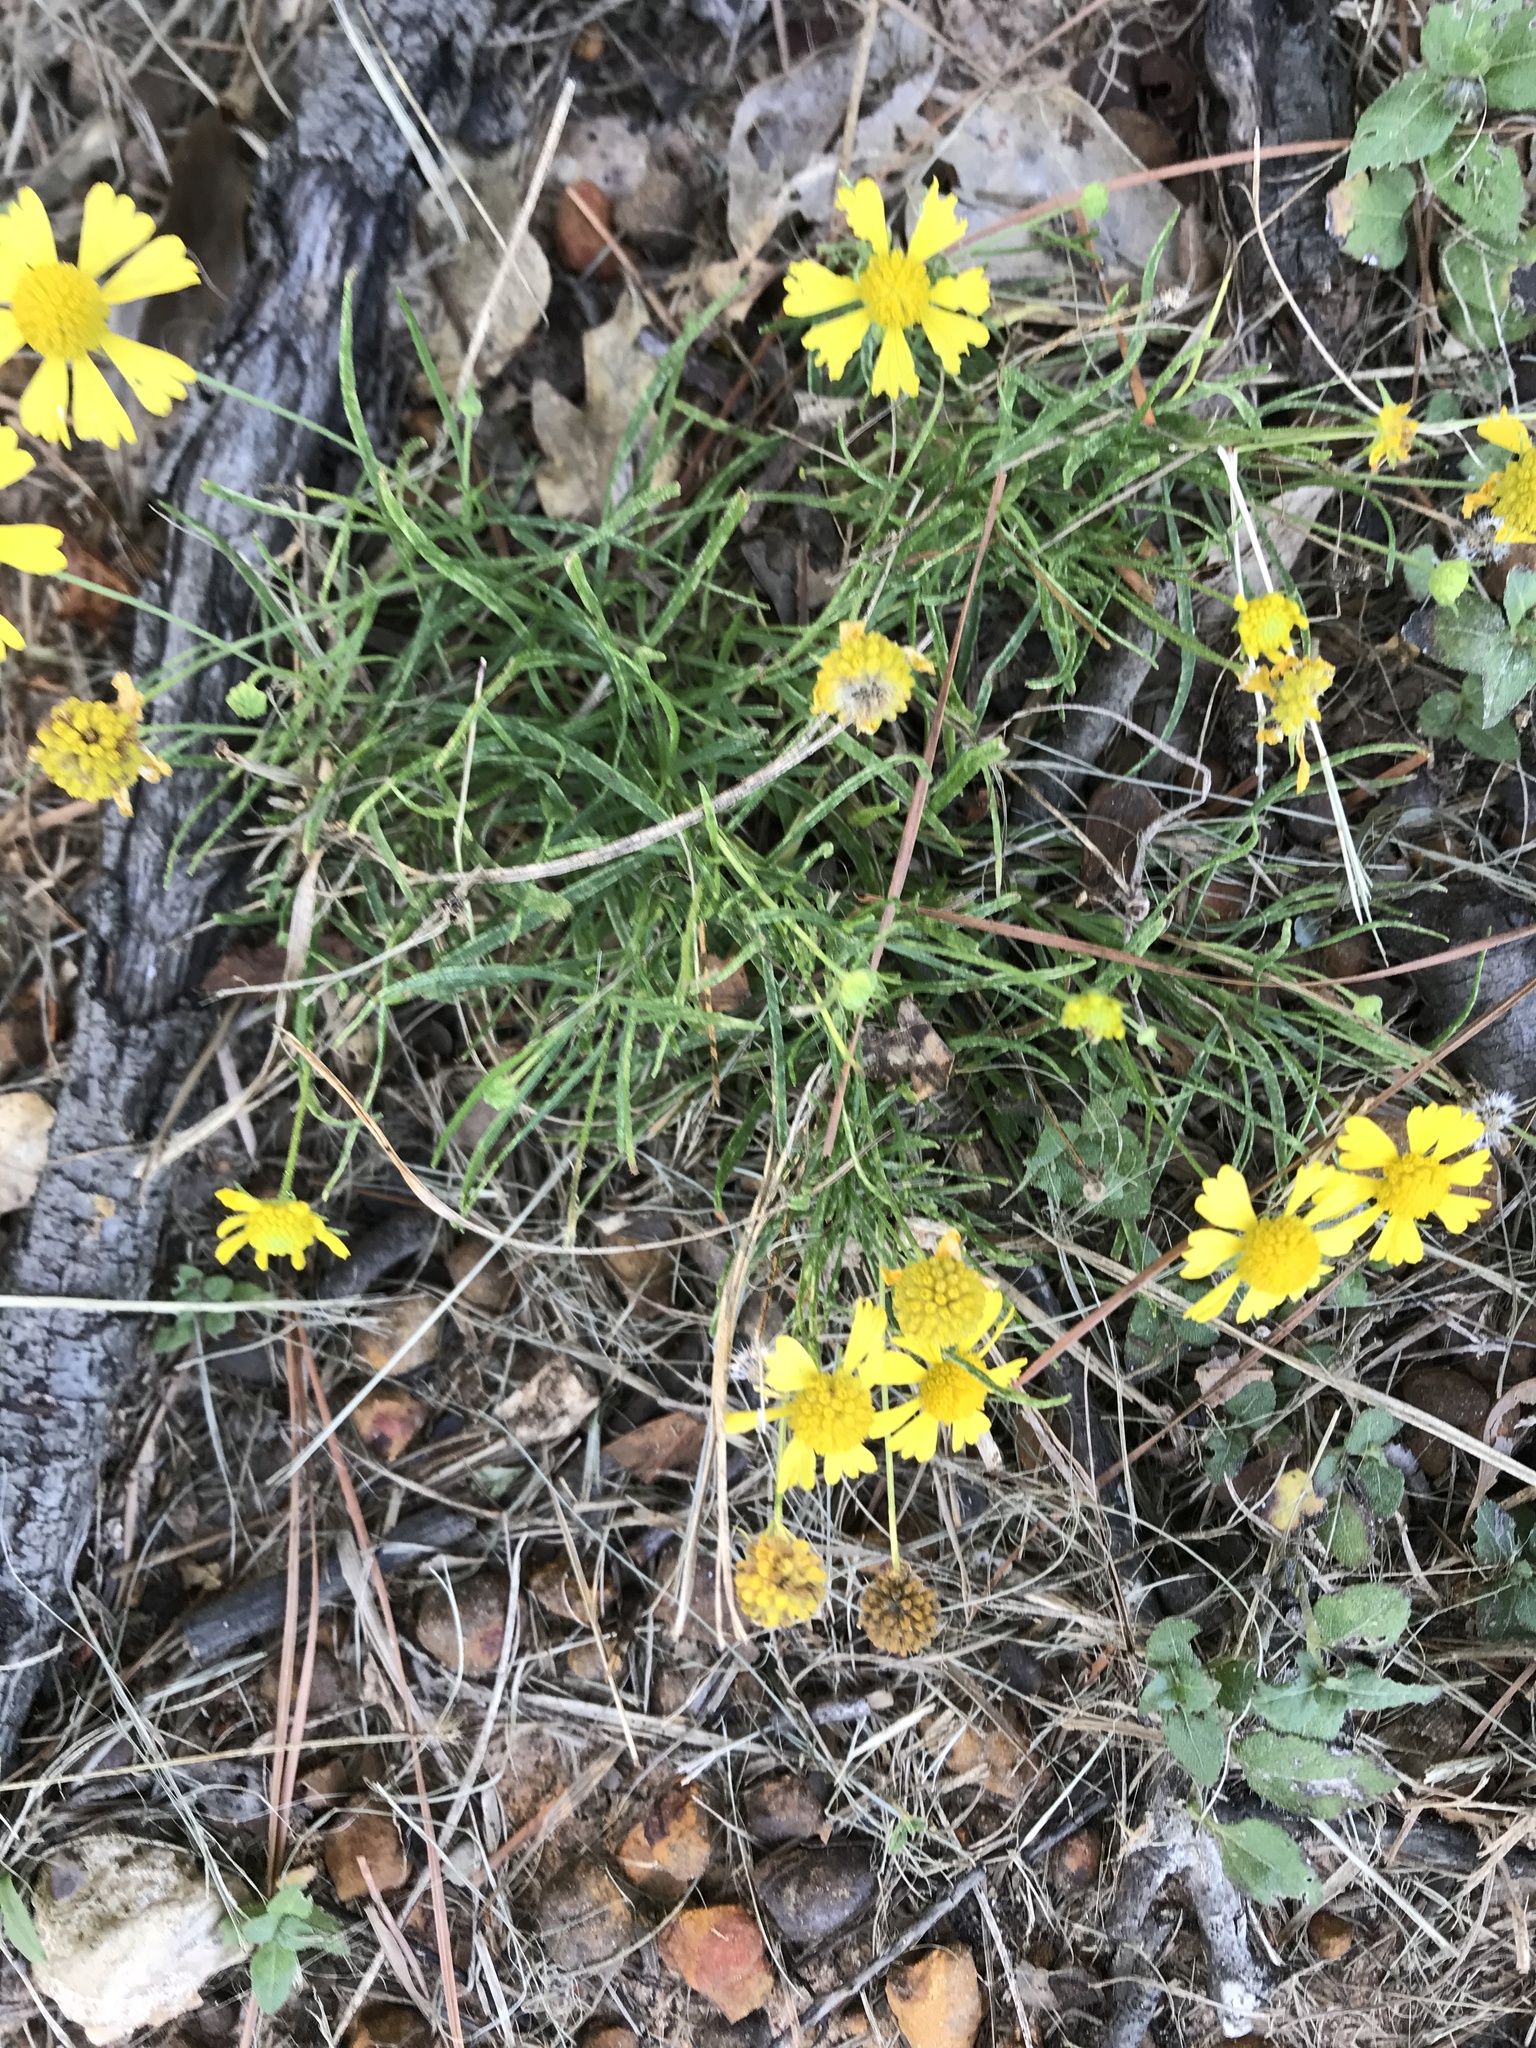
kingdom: Plantae
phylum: Tracheophyta
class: Magnoliopsida
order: Asterales
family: Asteraceae
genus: Helenium
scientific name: Helenium amarum
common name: Bitter sneezeweed
